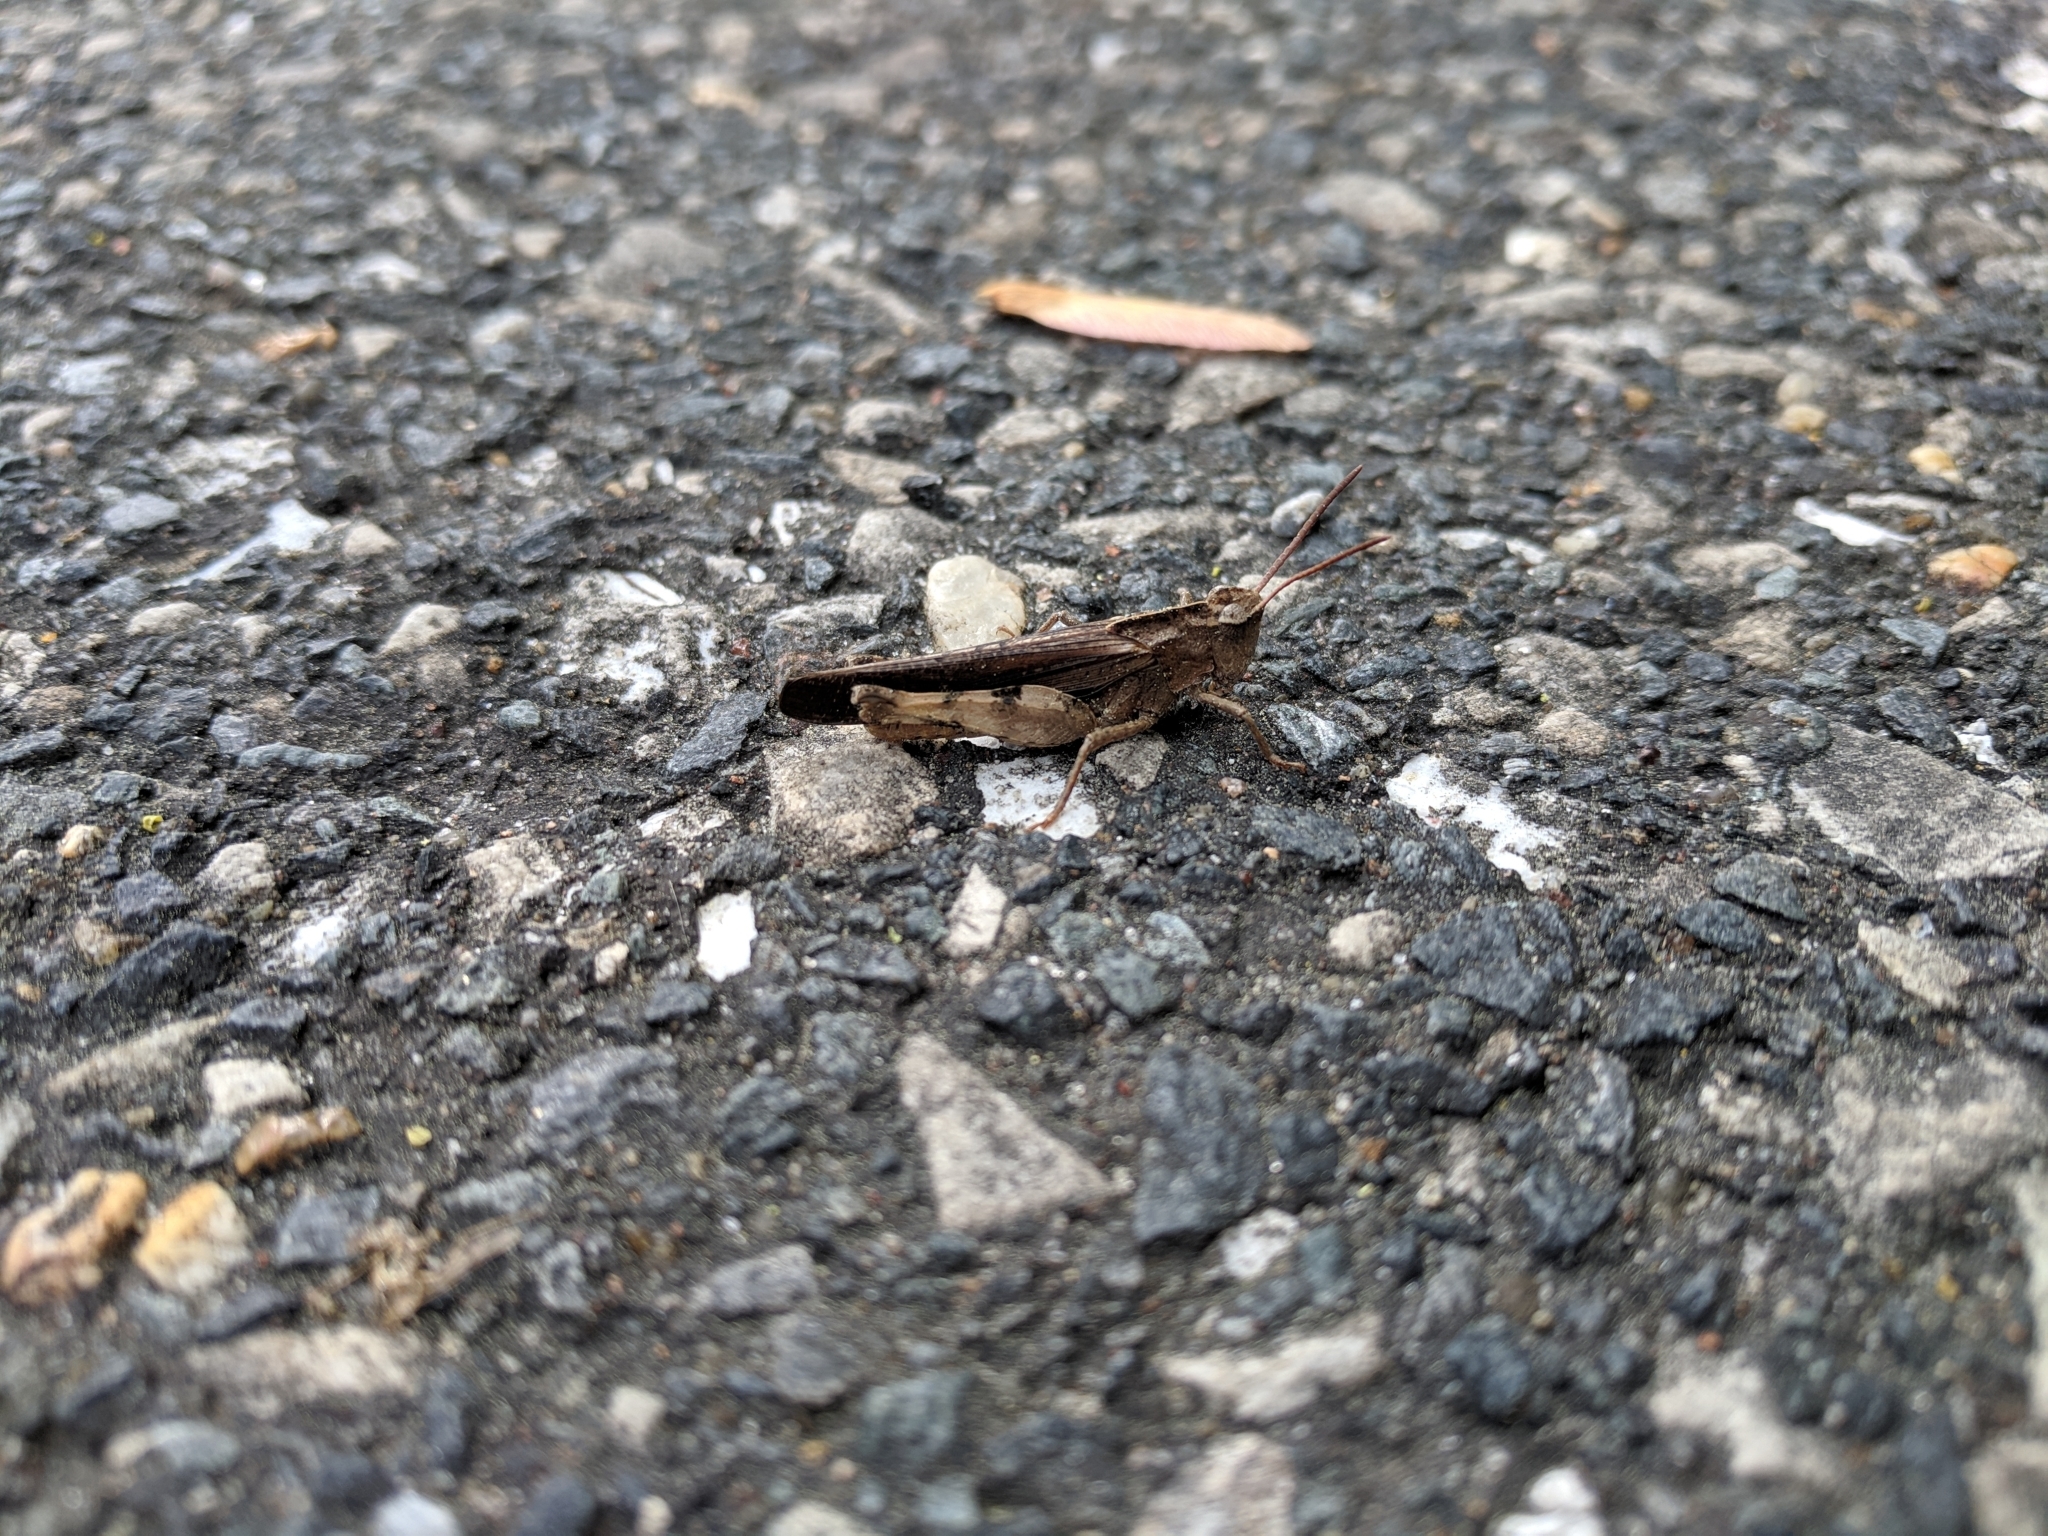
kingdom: Animalia
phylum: Arthropoda
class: Insecta
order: Orthoptera
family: Acrididae
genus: Chortophaga
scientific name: Chortophaga viridifasciata
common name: Green-striped grasshopper
